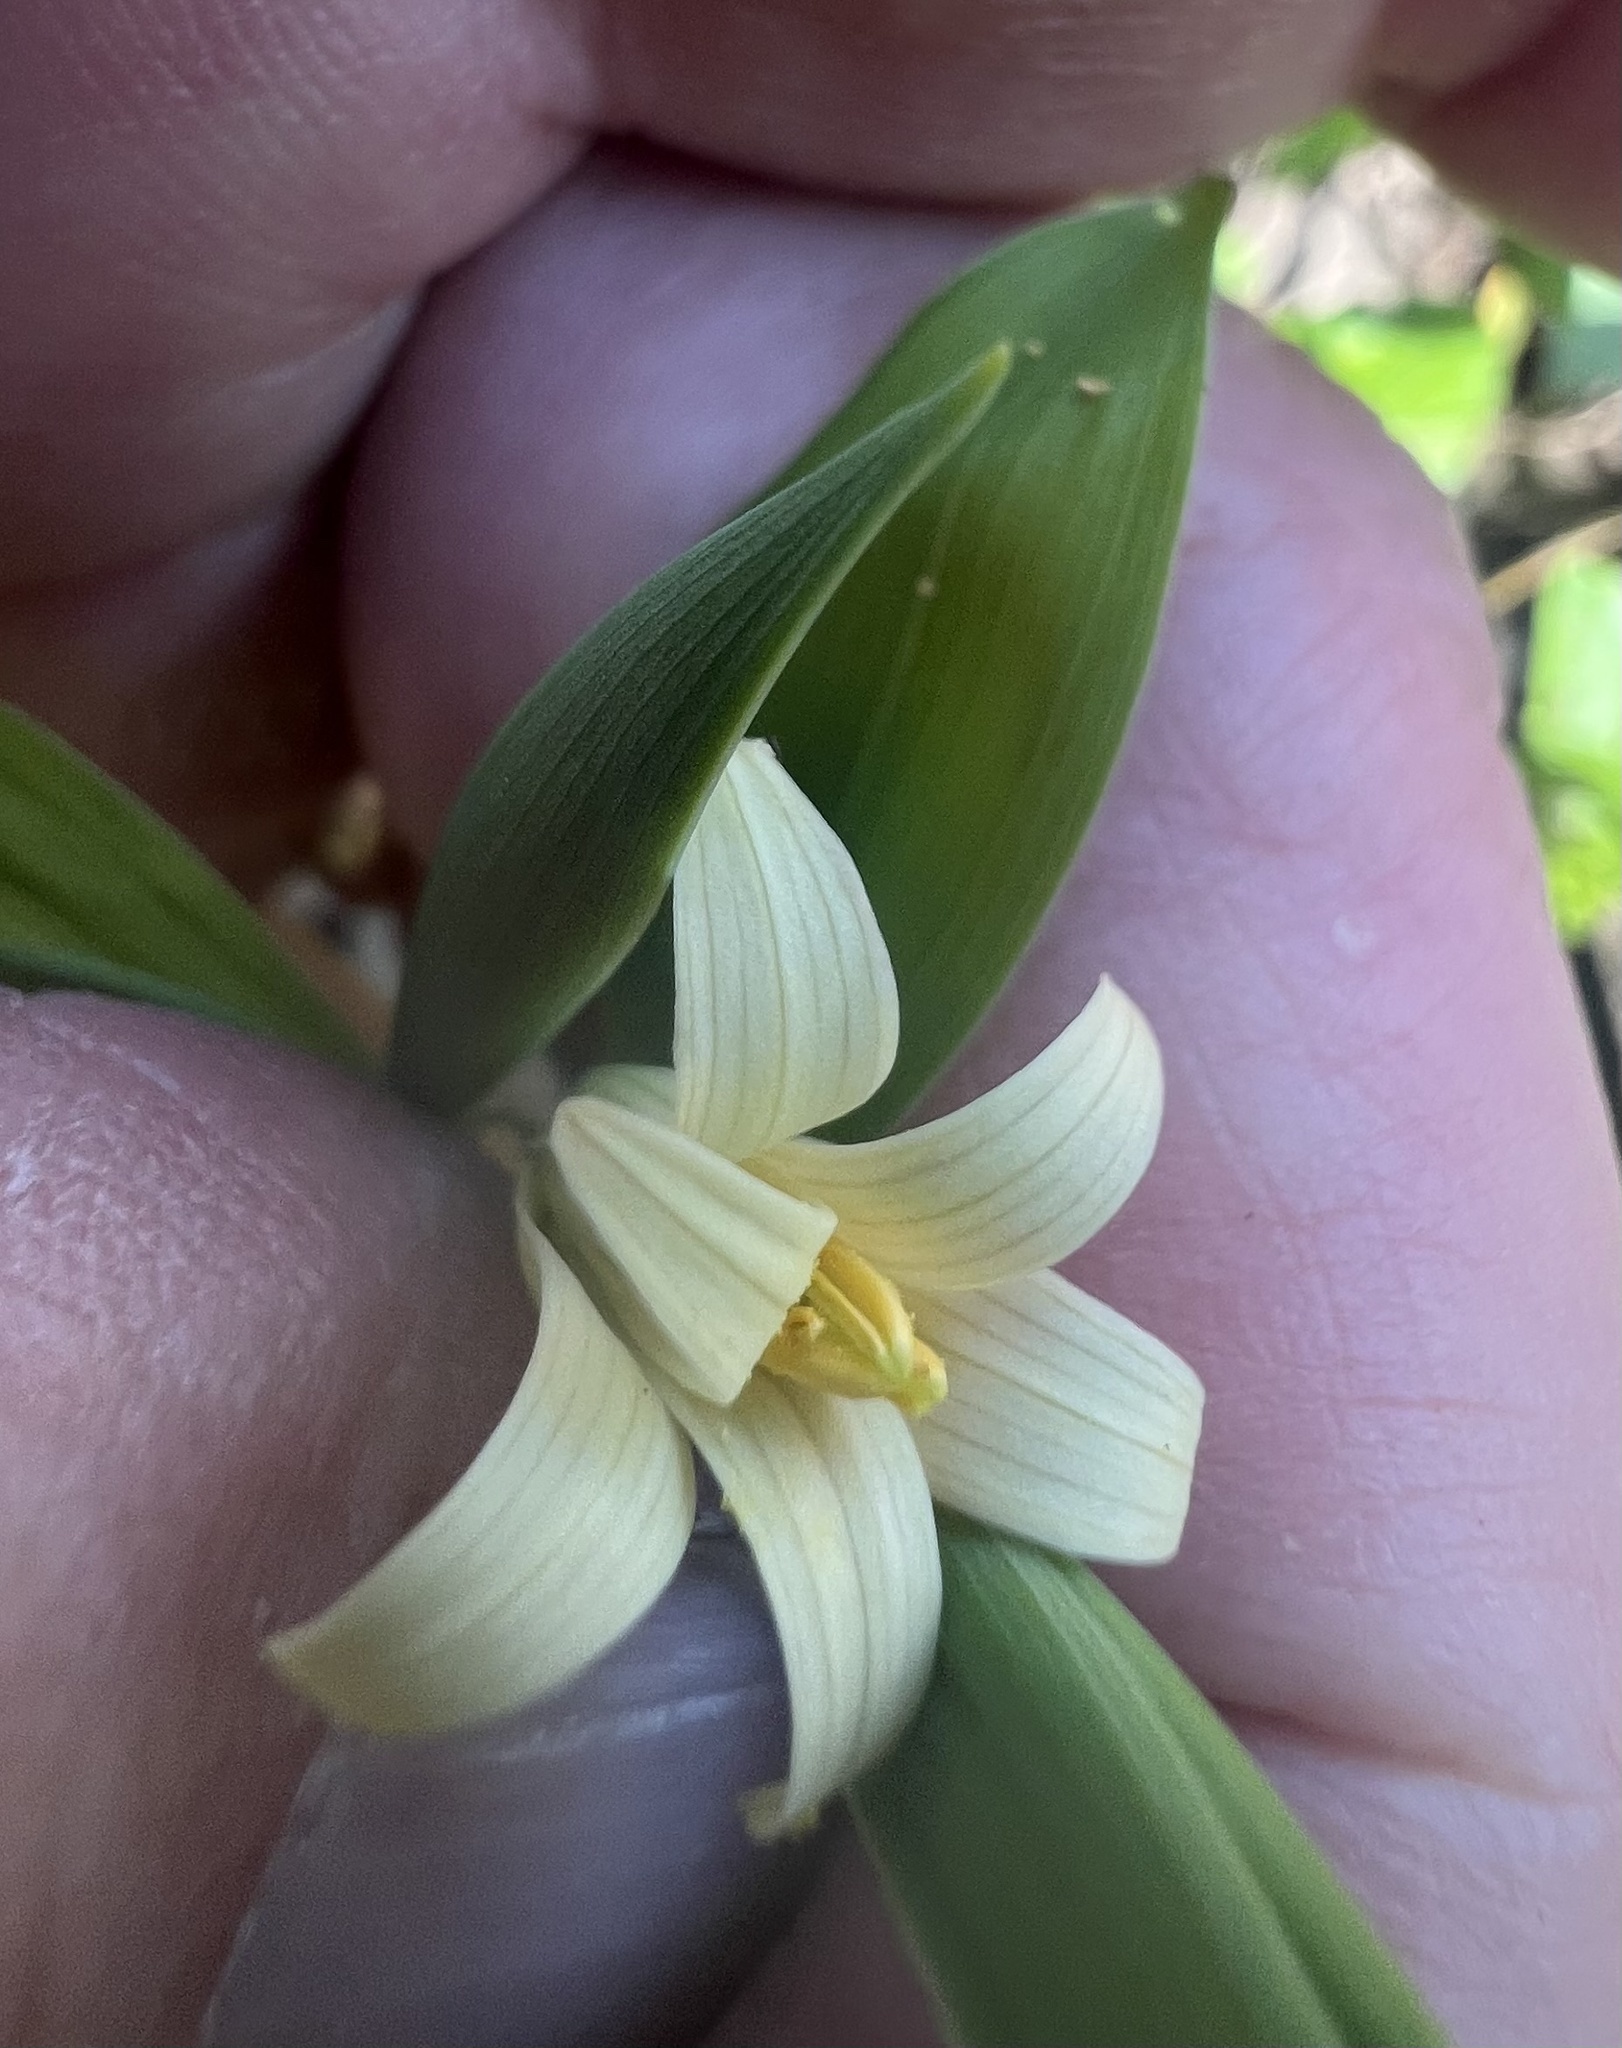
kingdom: Plantae
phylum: Tracheophyta
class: Liliopsida
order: Liliales
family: Colchicaceae
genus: Uvularia
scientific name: Uvularia sessilifolia
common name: Straw-lily
